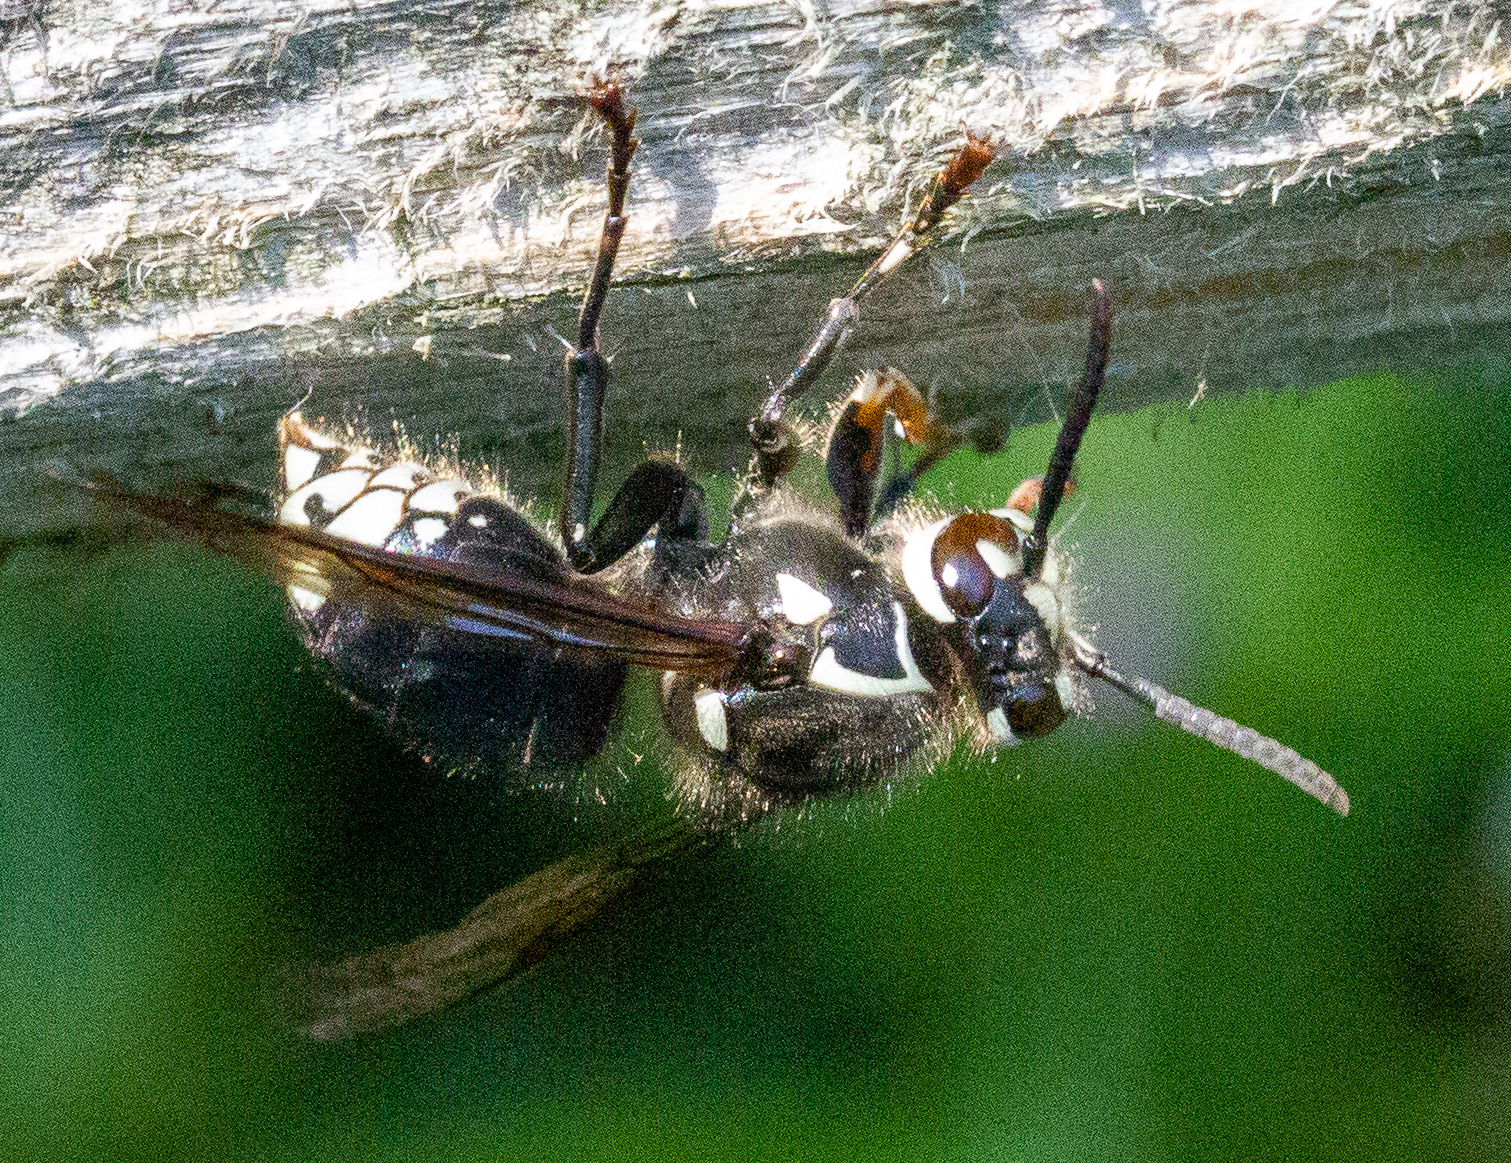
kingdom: Animalia
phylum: Arthropoda
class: Insecta
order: Hymenoptera
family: Vespidae
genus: Dolichovespula
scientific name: Dolichovespula maculata
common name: Bald-faced hornet
